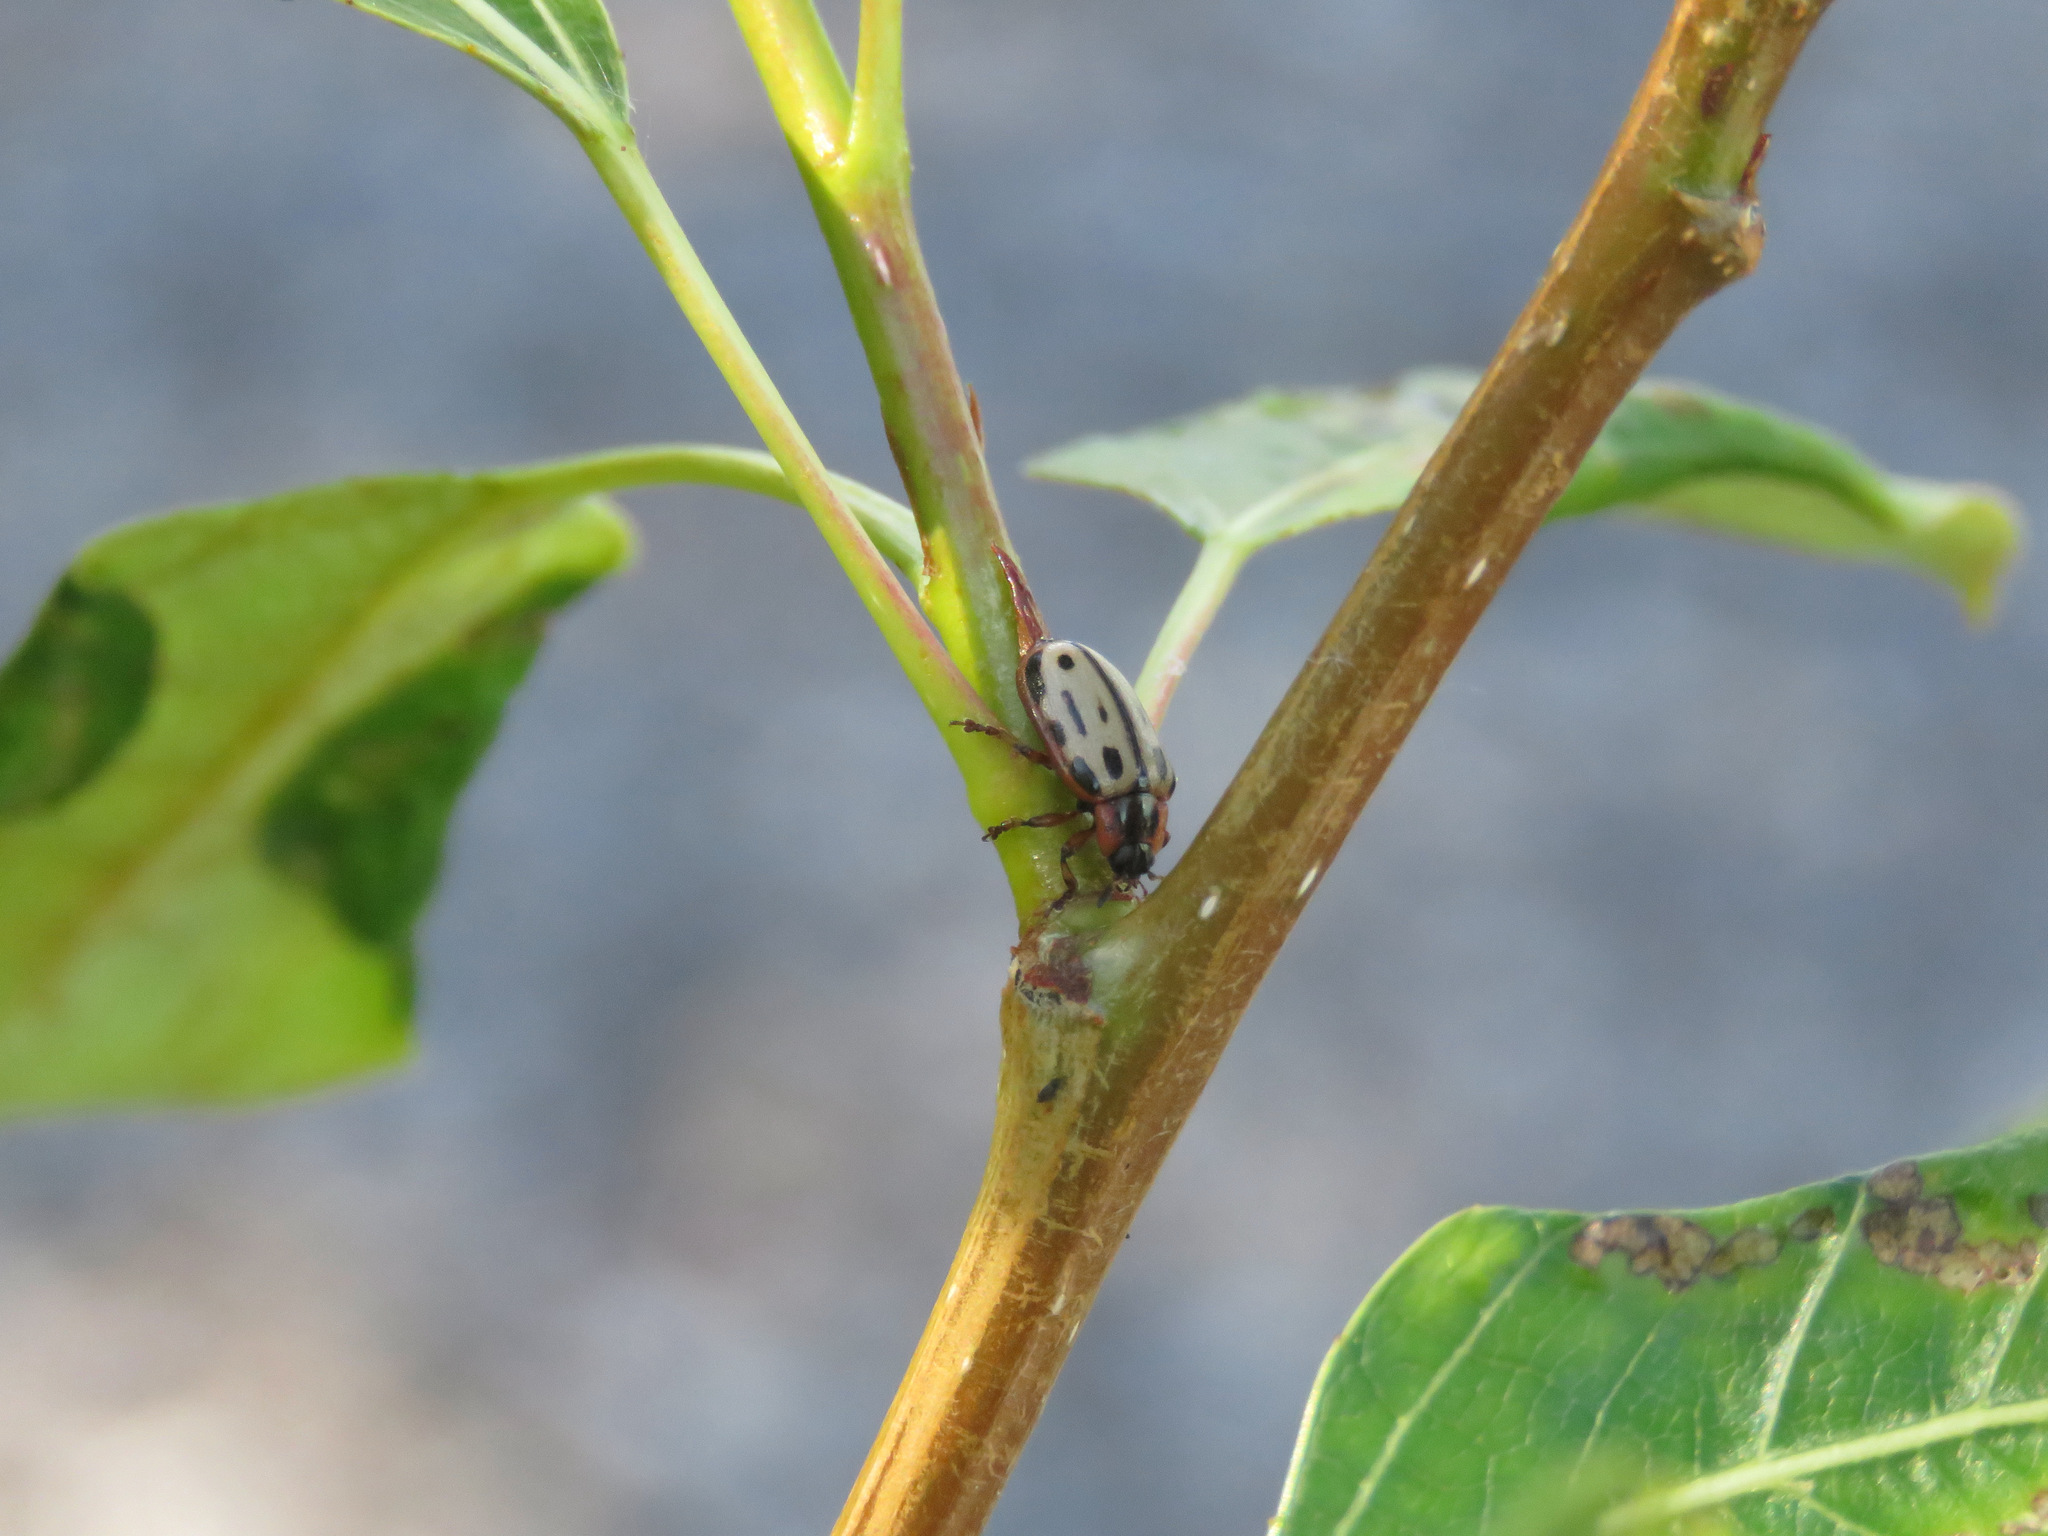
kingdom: Animalia
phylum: Arthropoda
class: Insecta
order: Coleoptera
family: Chrysomelidae
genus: Aethiopocassis
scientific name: Aethiopocassis scripta
